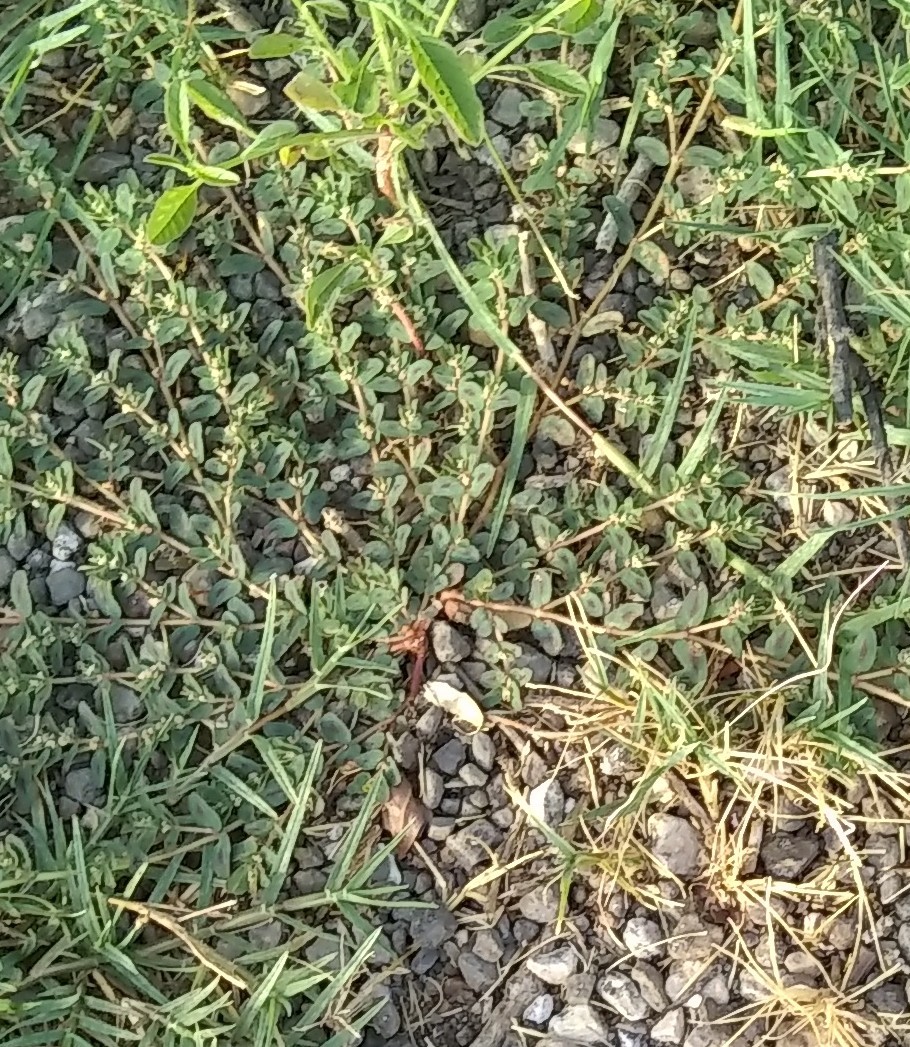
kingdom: Plantae
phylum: Tracheophyta
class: Magnoliopsida
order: Malpighiales
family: Euphorbiaceae
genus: Euphorbia
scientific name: Euphorbia maculata
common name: Spotted spurge
